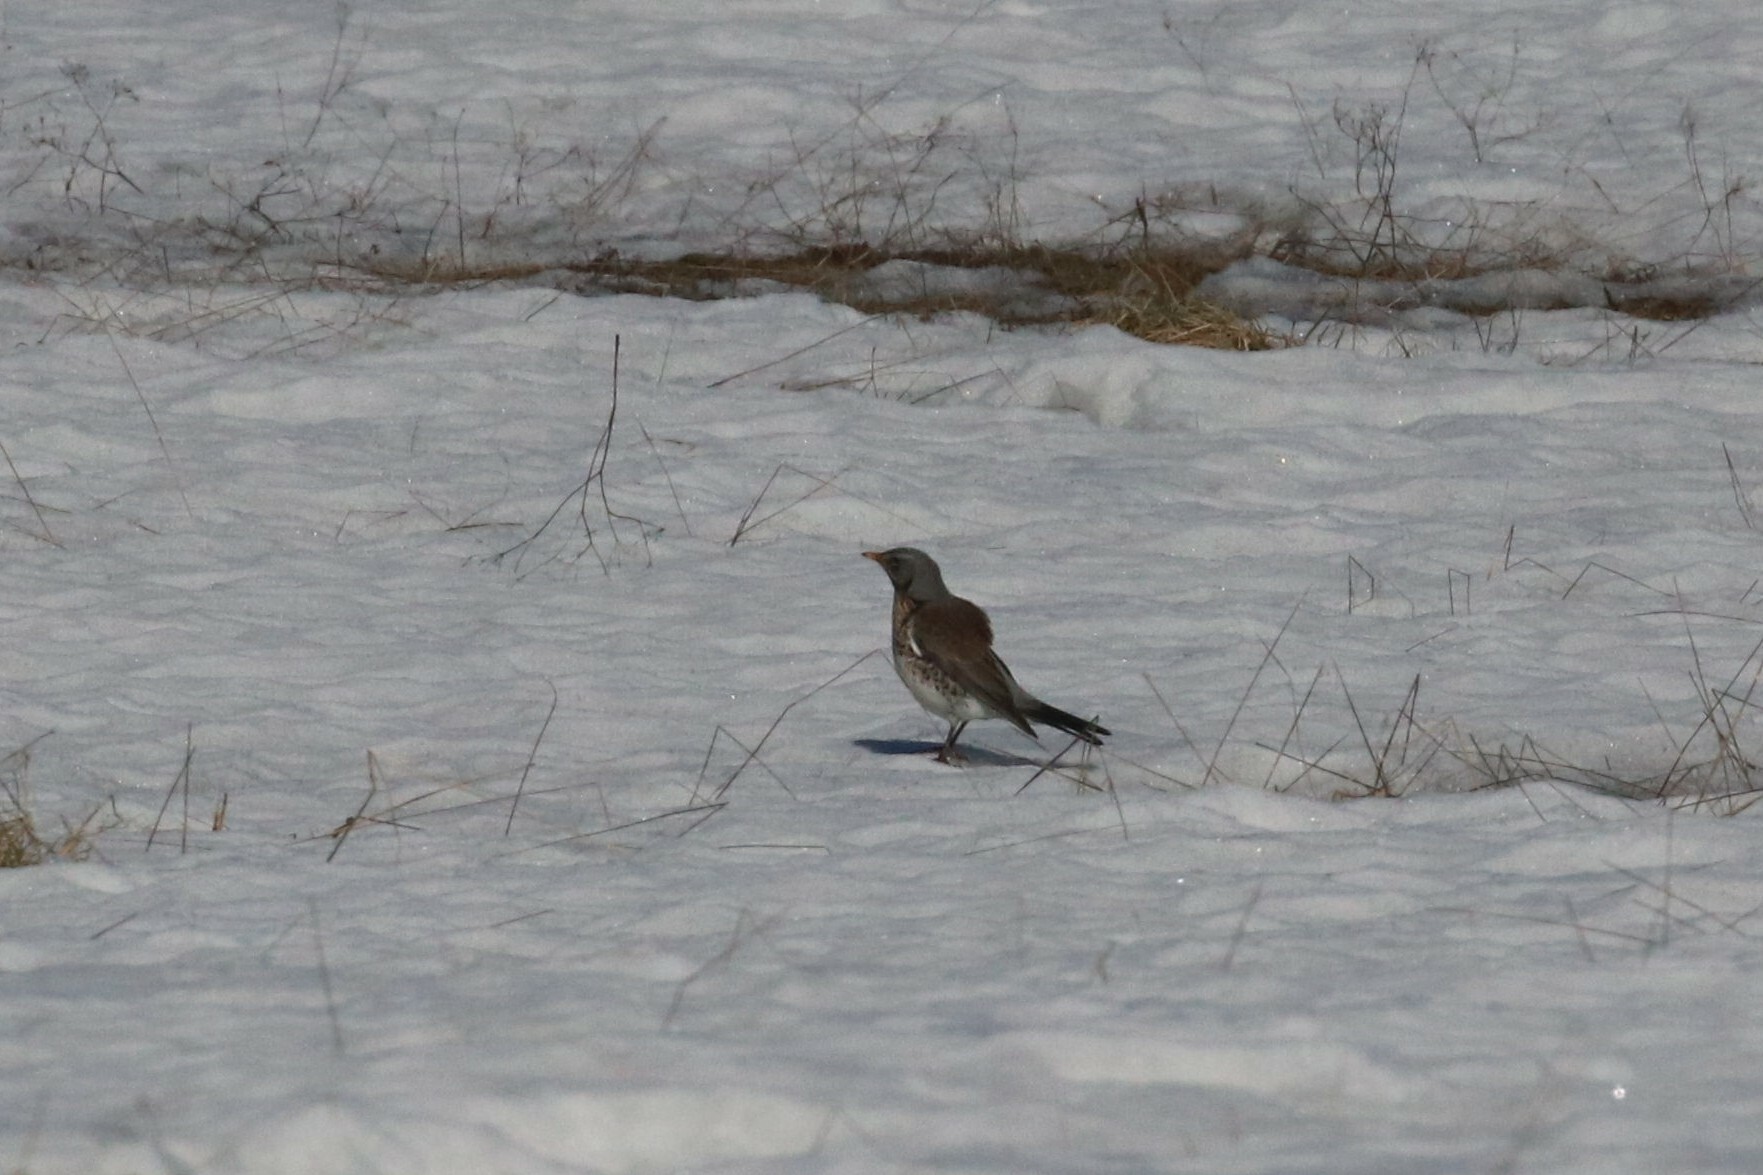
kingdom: Animalia
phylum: Chordata
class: Aves
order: Passeriformes
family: Turdidae
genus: Turdus
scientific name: Turdus pilaris
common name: Fieldfare
